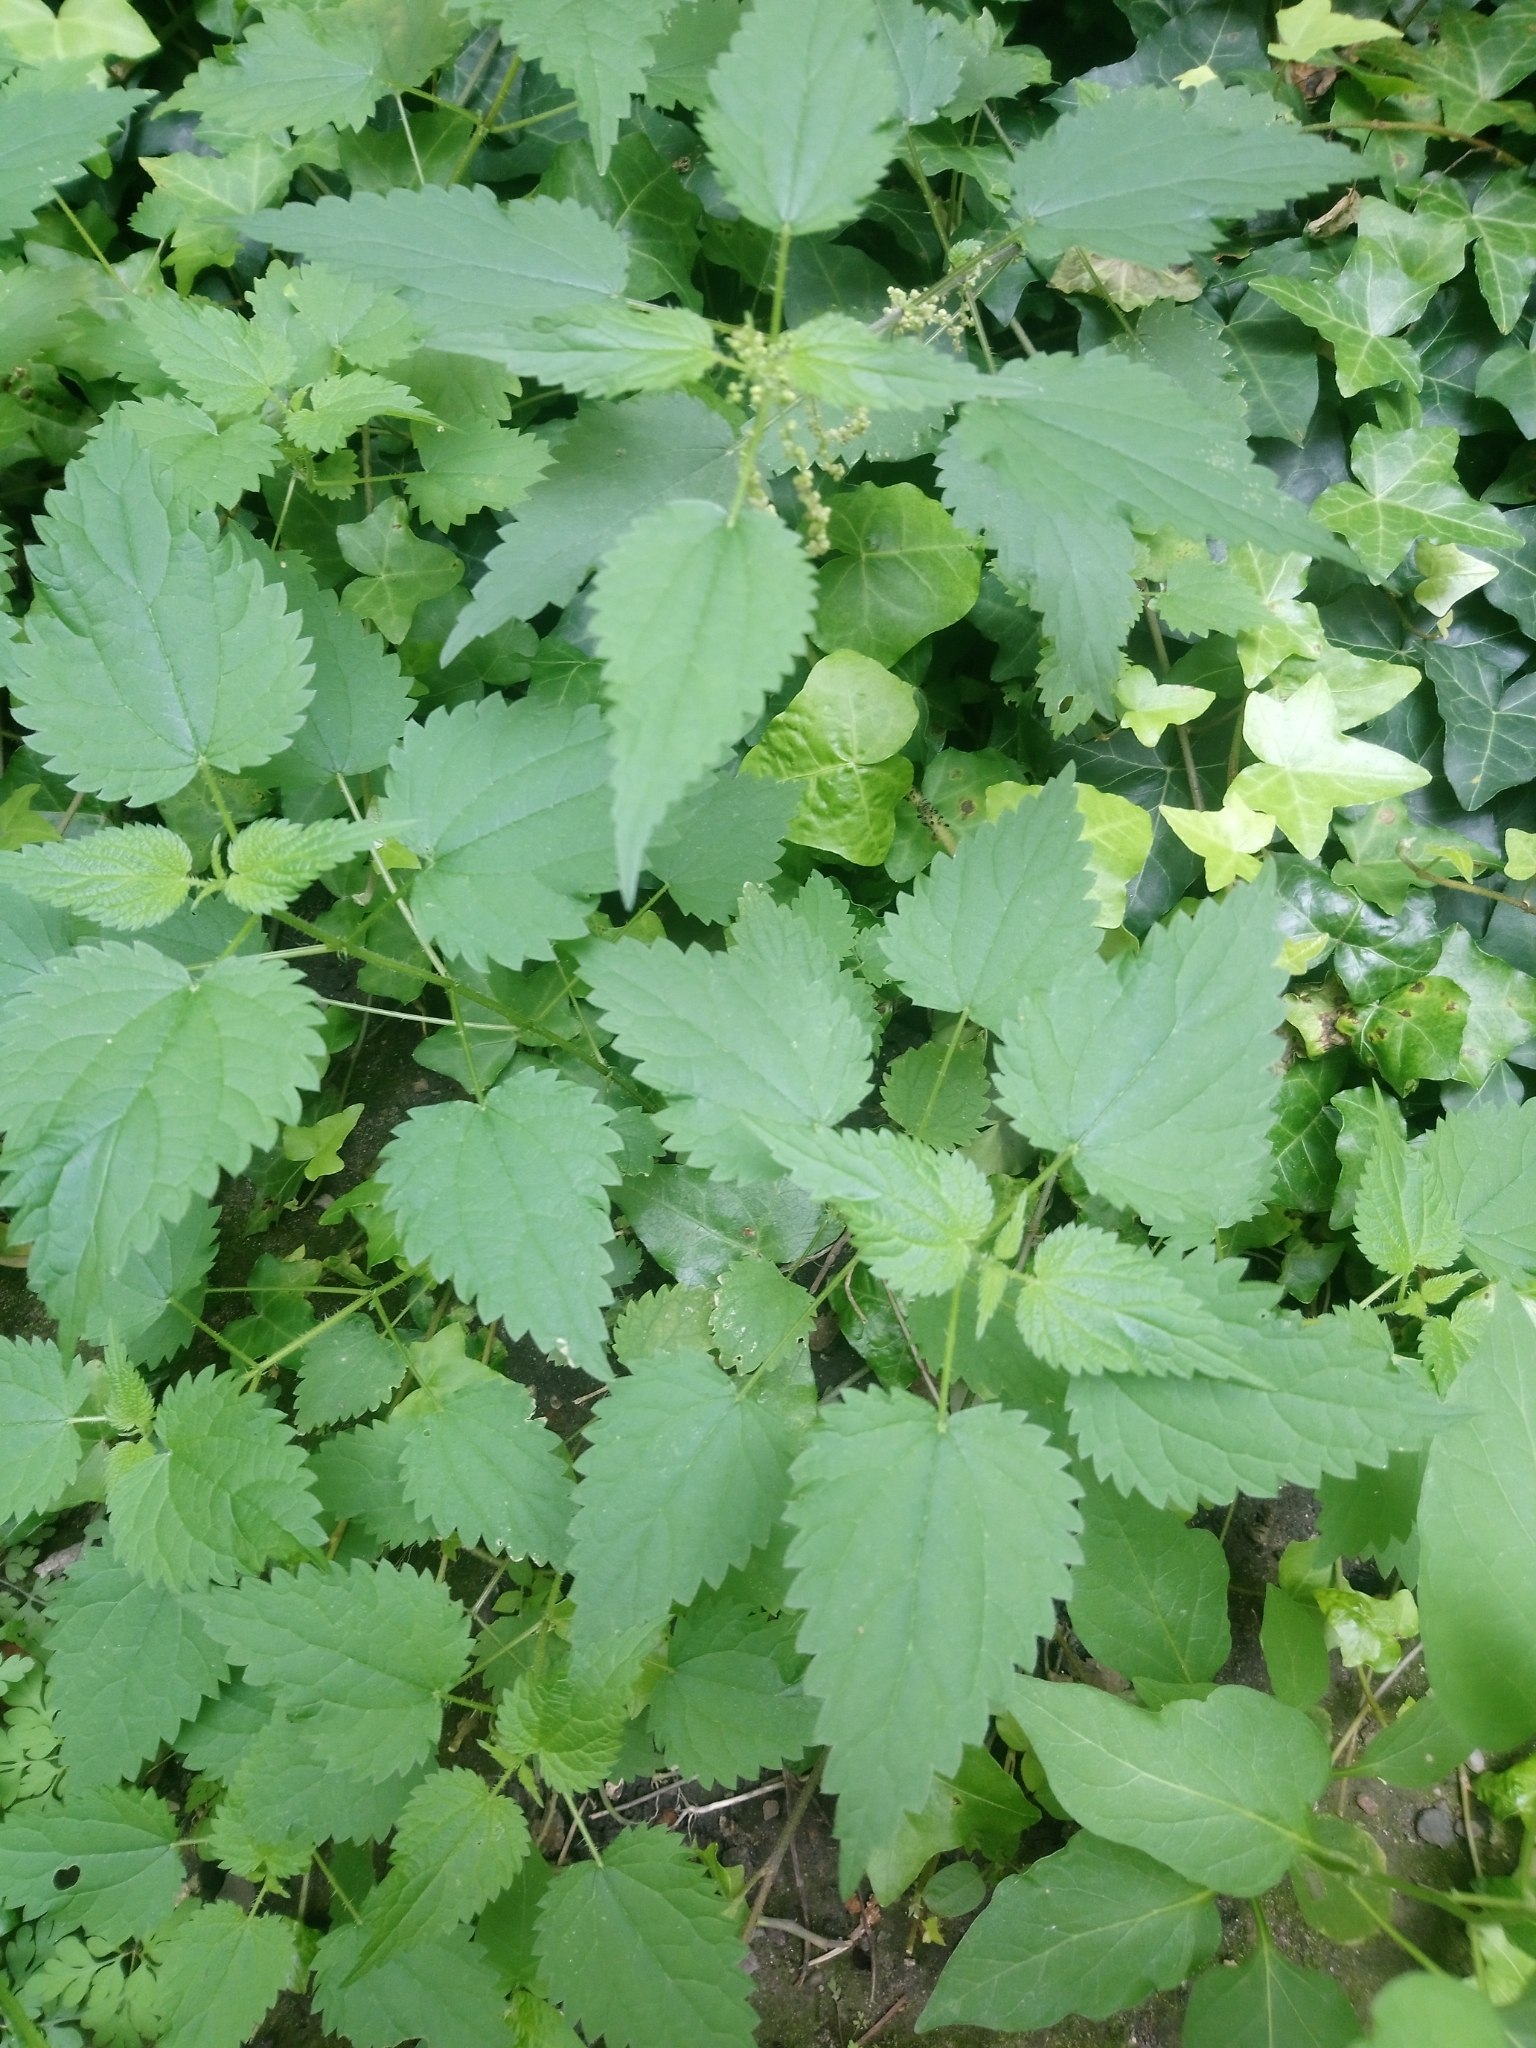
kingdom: Plantae
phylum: Tracheophyta
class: Magnoliopsida
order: Rosales
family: Urticaceae
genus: Urtica
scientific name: Urtica dioica
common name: Common nettle
